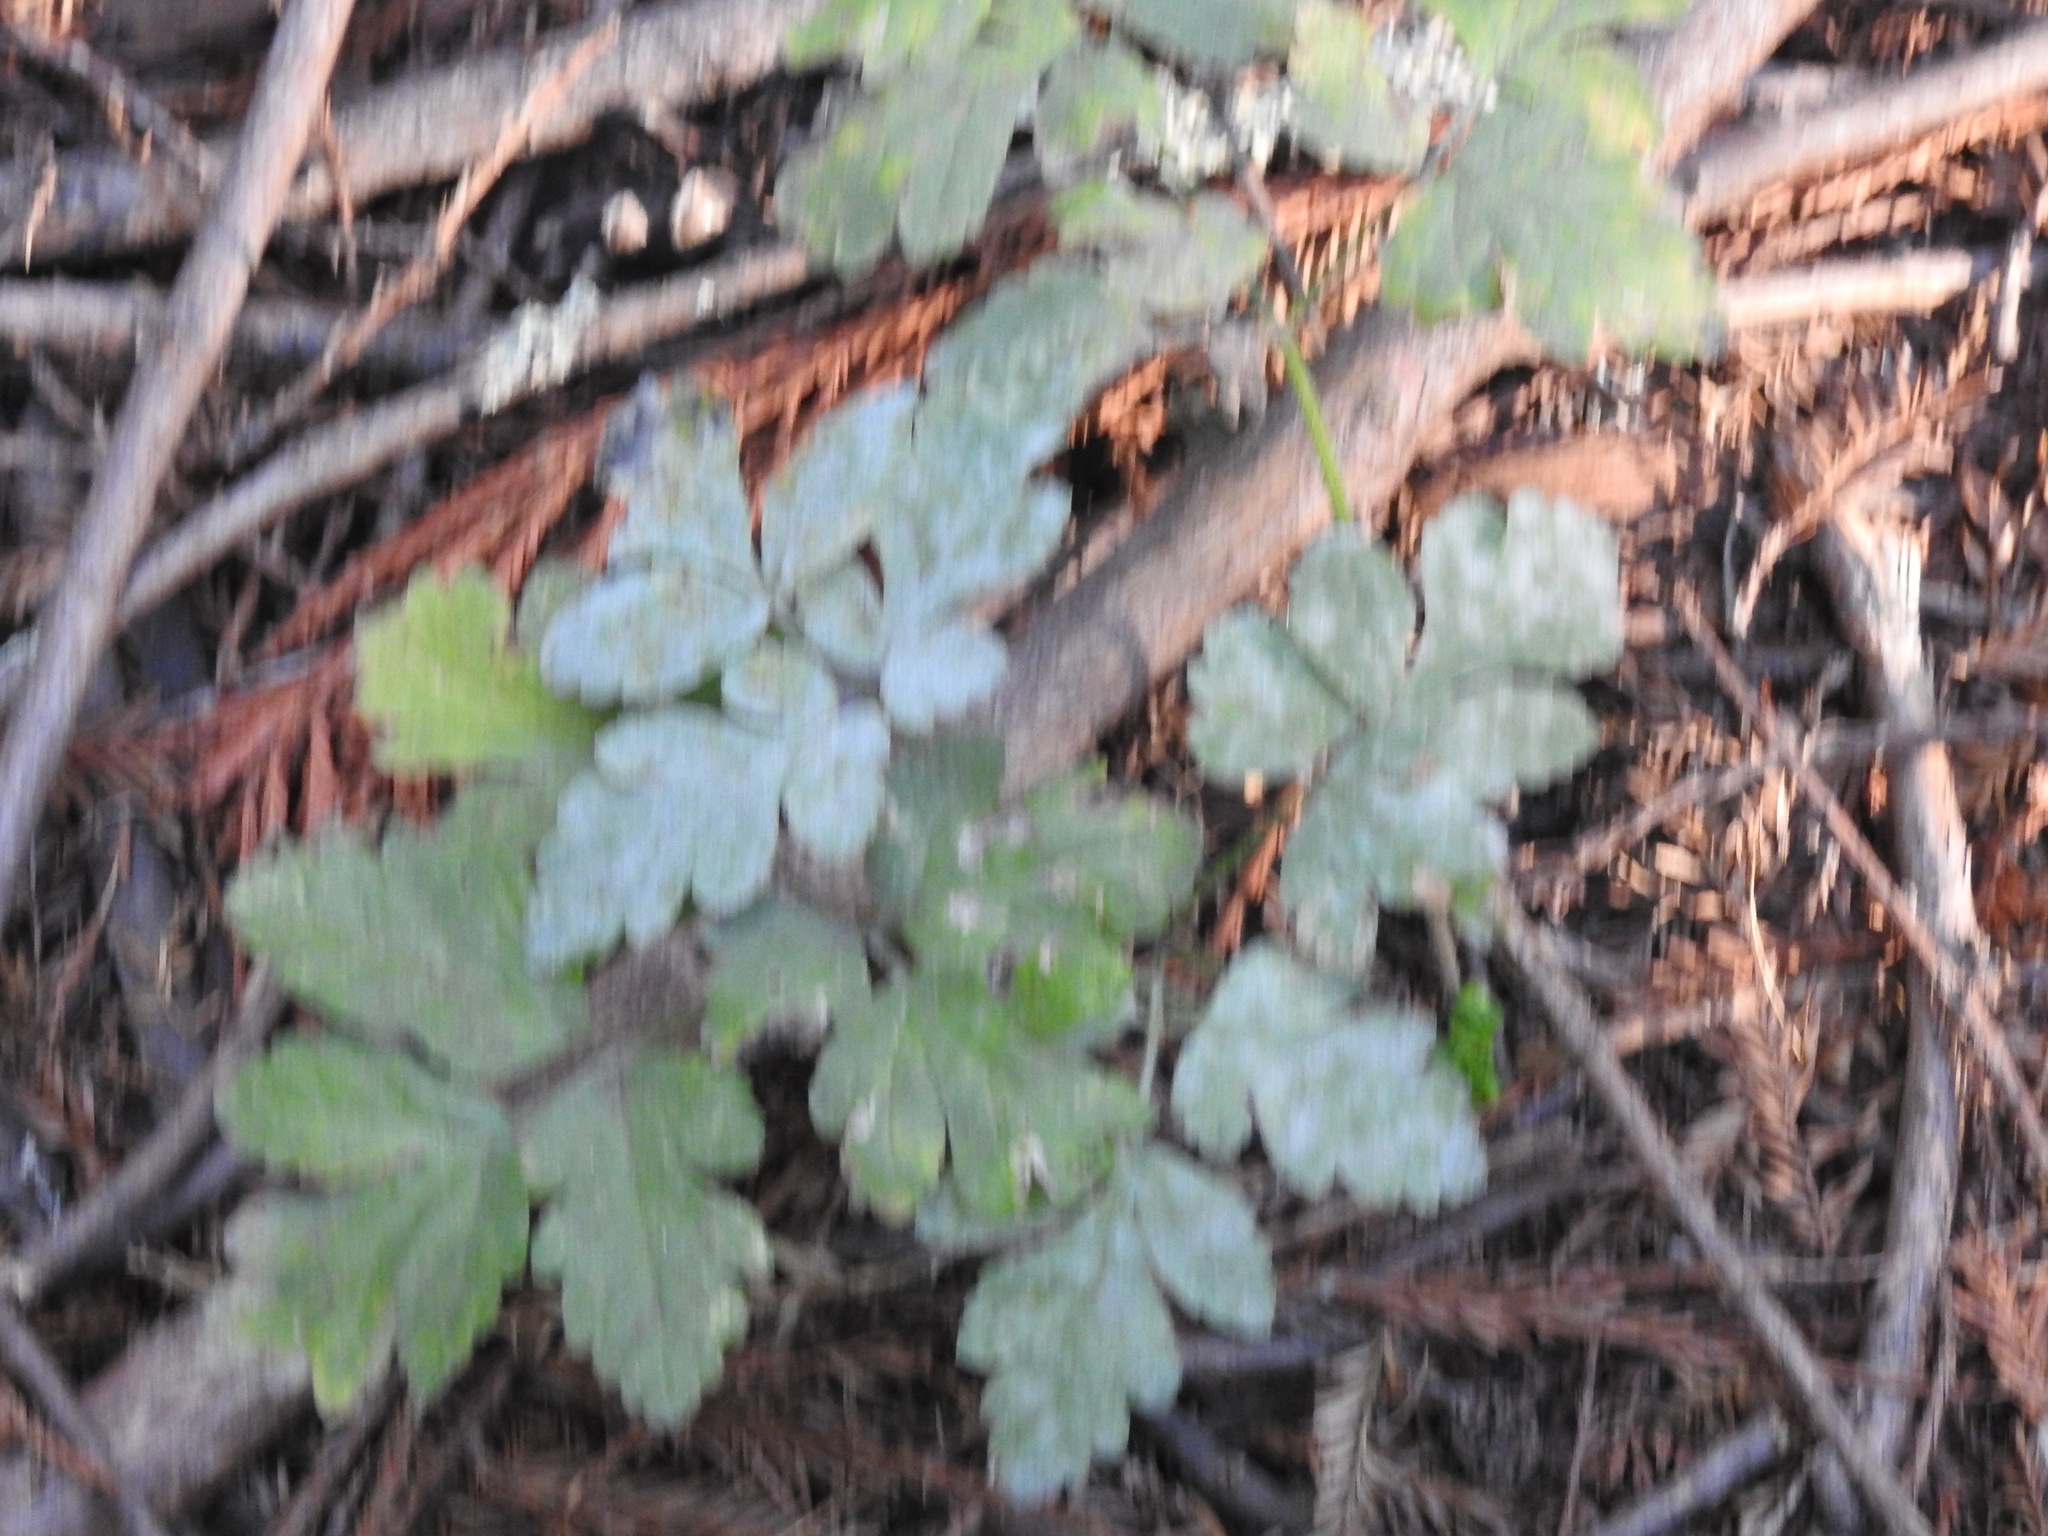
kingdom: Plantae
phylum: Tracheophyta
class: Magnoliopsida
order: Apiales
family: Apiaceae
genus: Osmorhiza
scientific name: Osmorhiza berteroi
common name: Mountain sweet cicely
